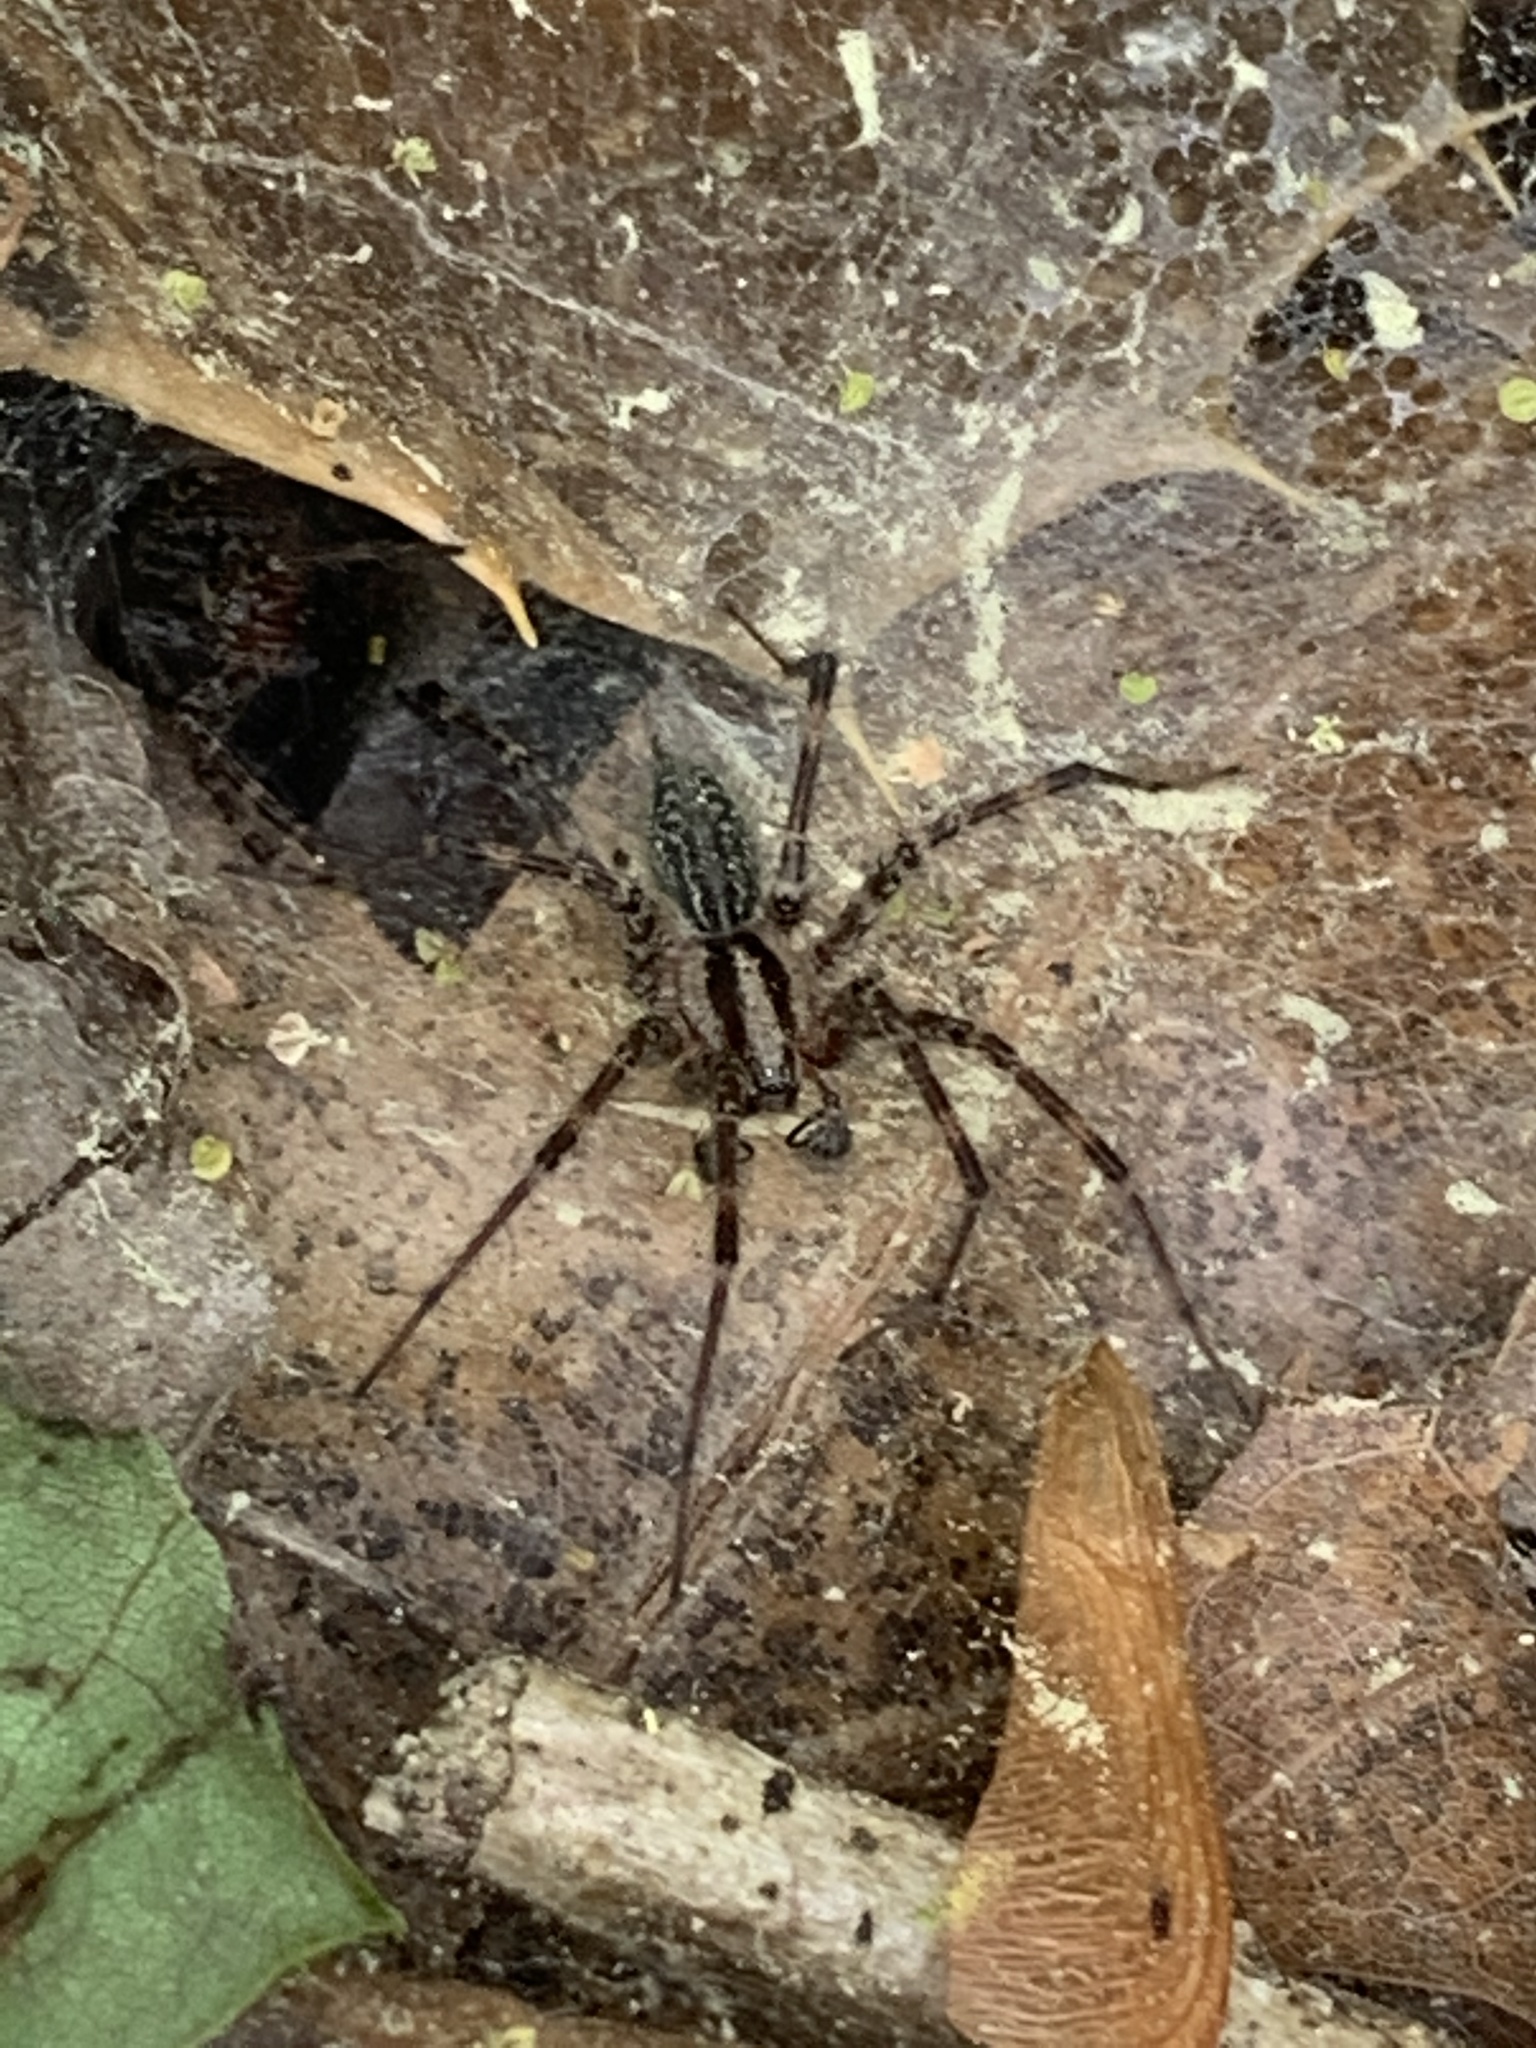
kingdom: Animalia
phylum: Arthropoda
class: Arachnida
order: Araneae
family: Agelenidae
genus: Agelenopsis
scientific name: Agelenopsis
